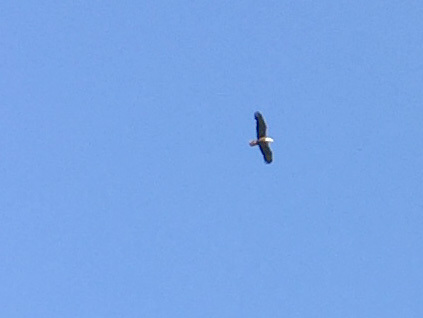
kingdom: Animalia
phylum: Chordata
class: Aves
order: Accipitriformes
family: Accipitridae
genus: Haliaeetus
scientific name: Haliaeetus leucocephalus
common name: Bald eagle
